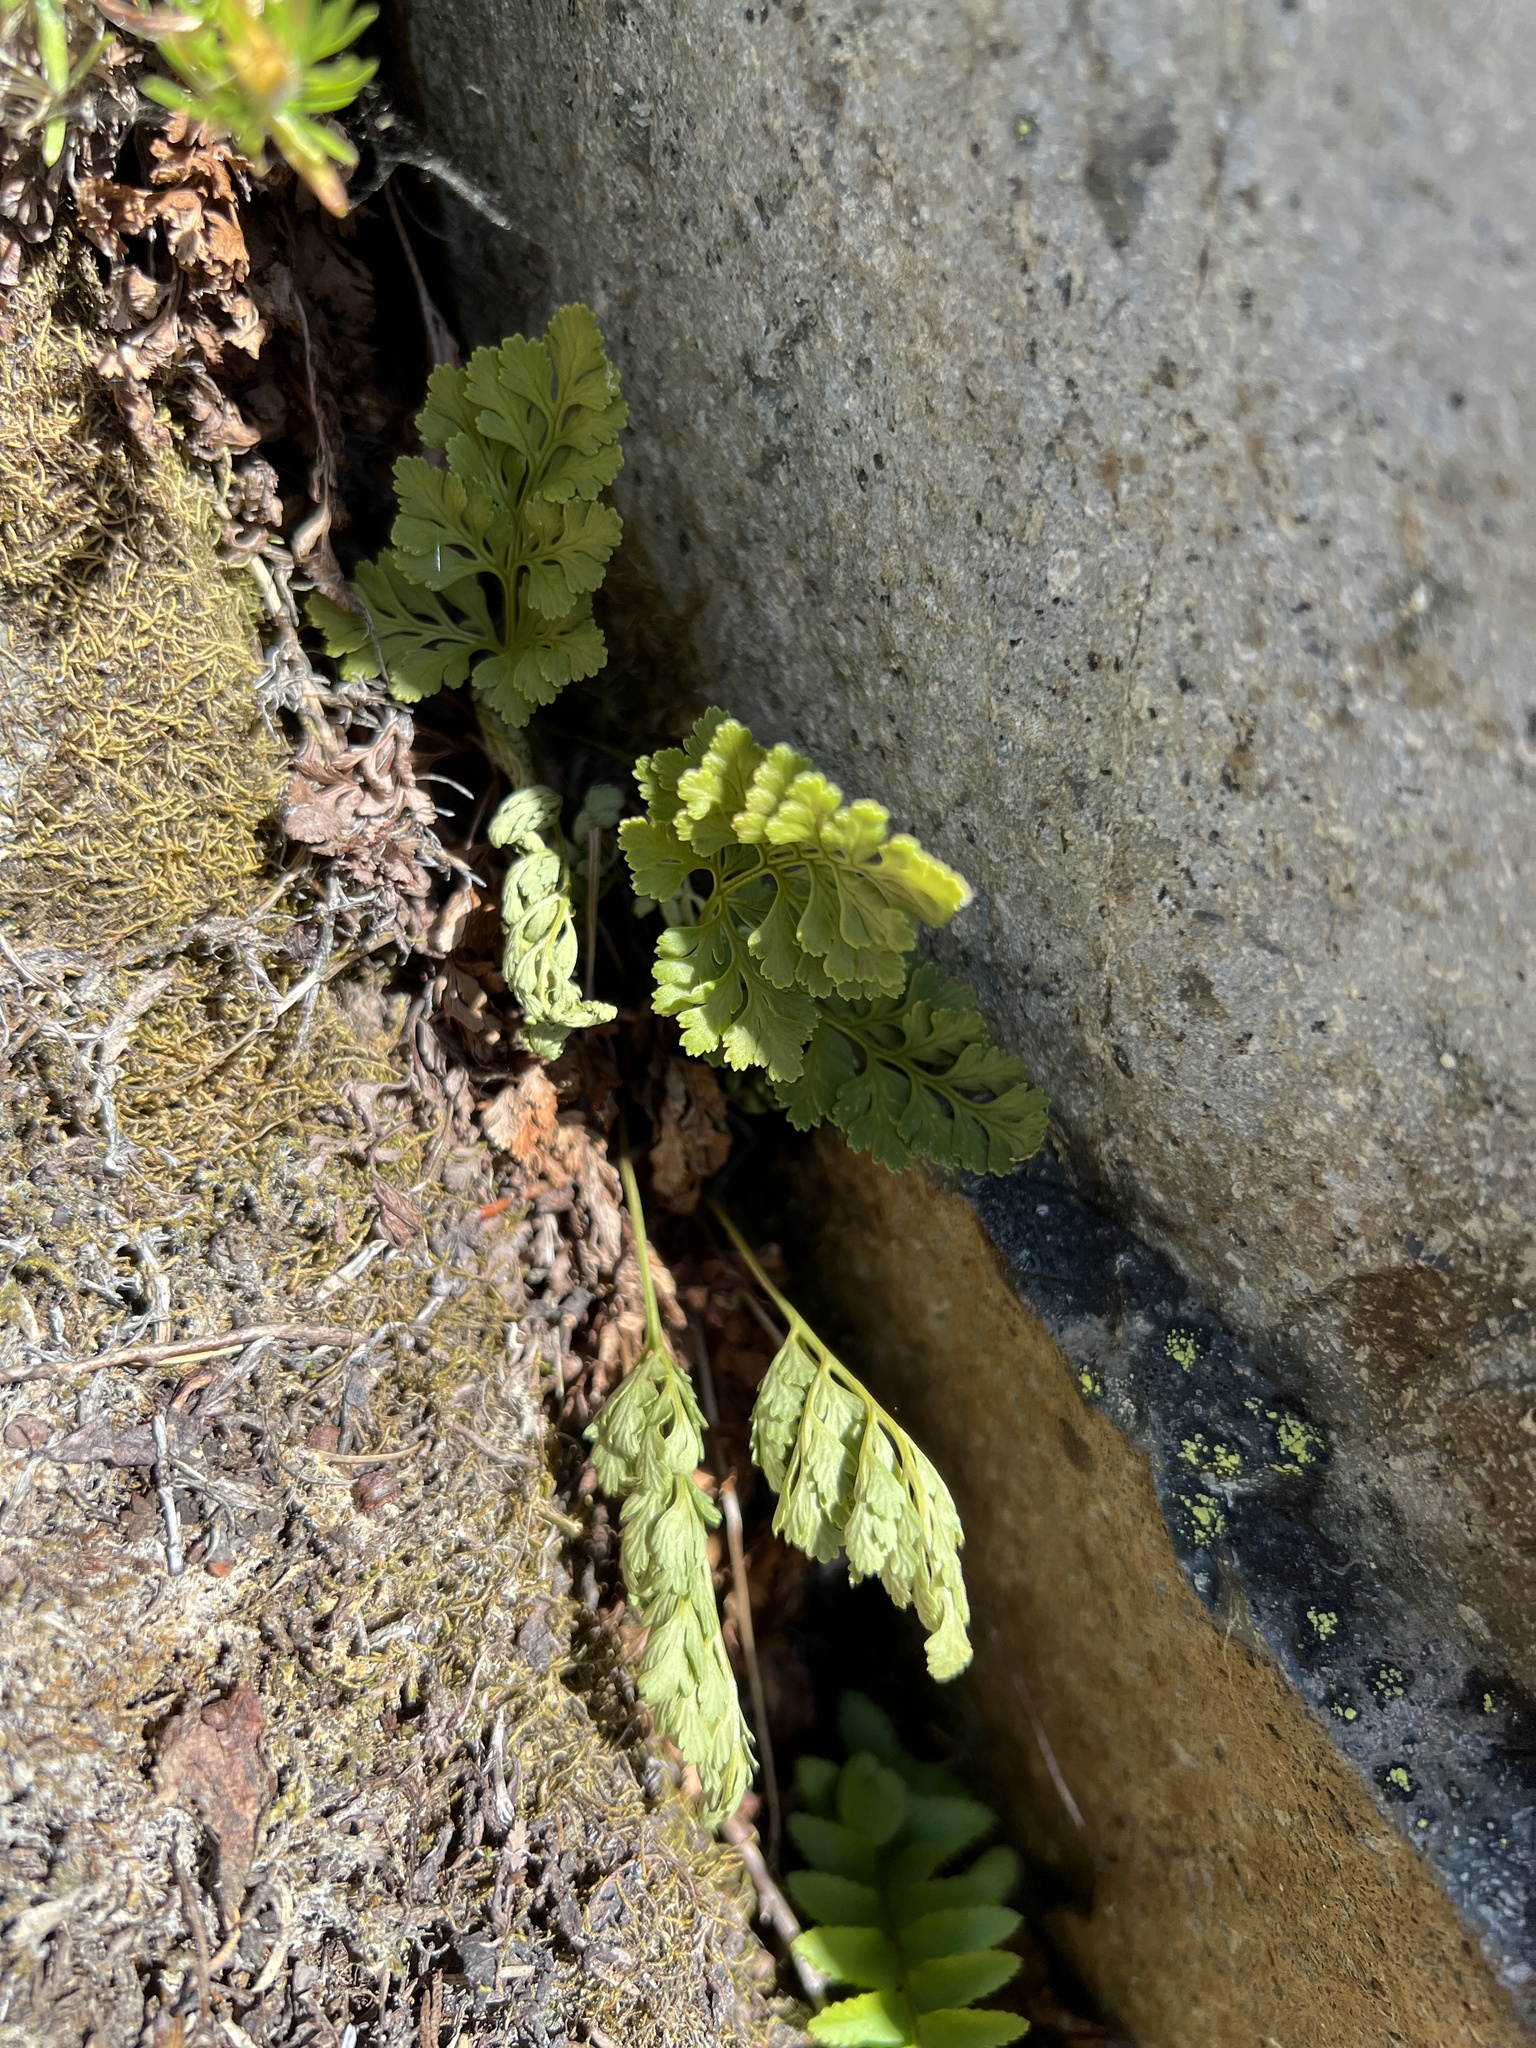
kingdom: Plantae
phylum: Tracheophyta
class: Polypodiopsida
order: Polypodiales
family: Pteridaceae
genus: Cryptogramma
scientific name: Cryptogramma acrostichoides
